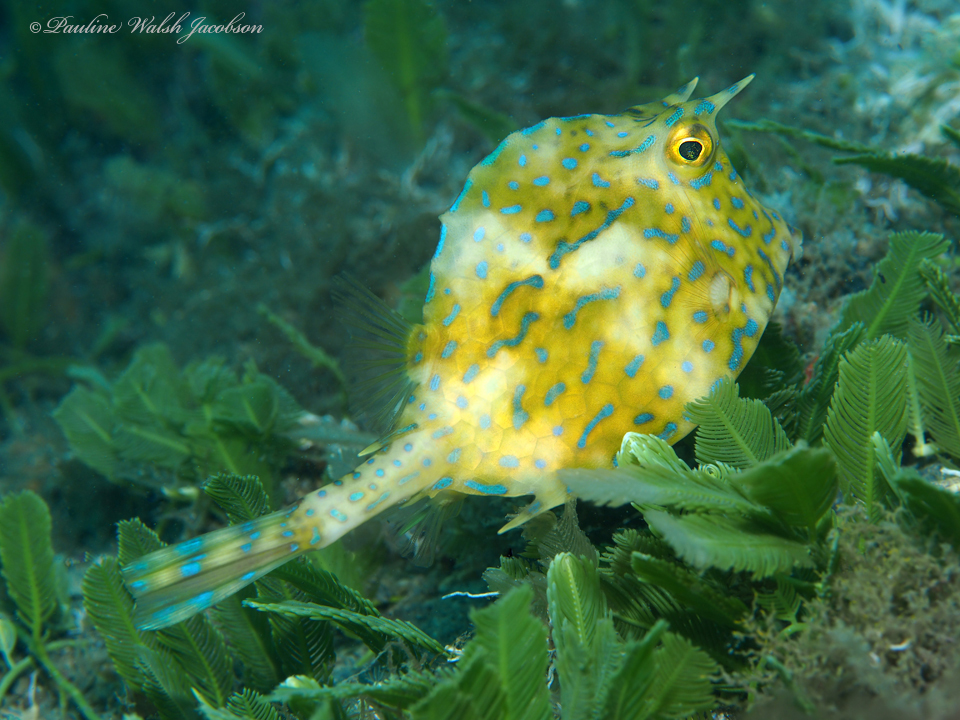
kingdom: Animalia
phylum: Chordata
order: Tetraodontiformes
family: Ostraciidae
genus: Acanthostracion
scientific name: Acanthostracion quadricornis
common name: Scrawled cowfish
